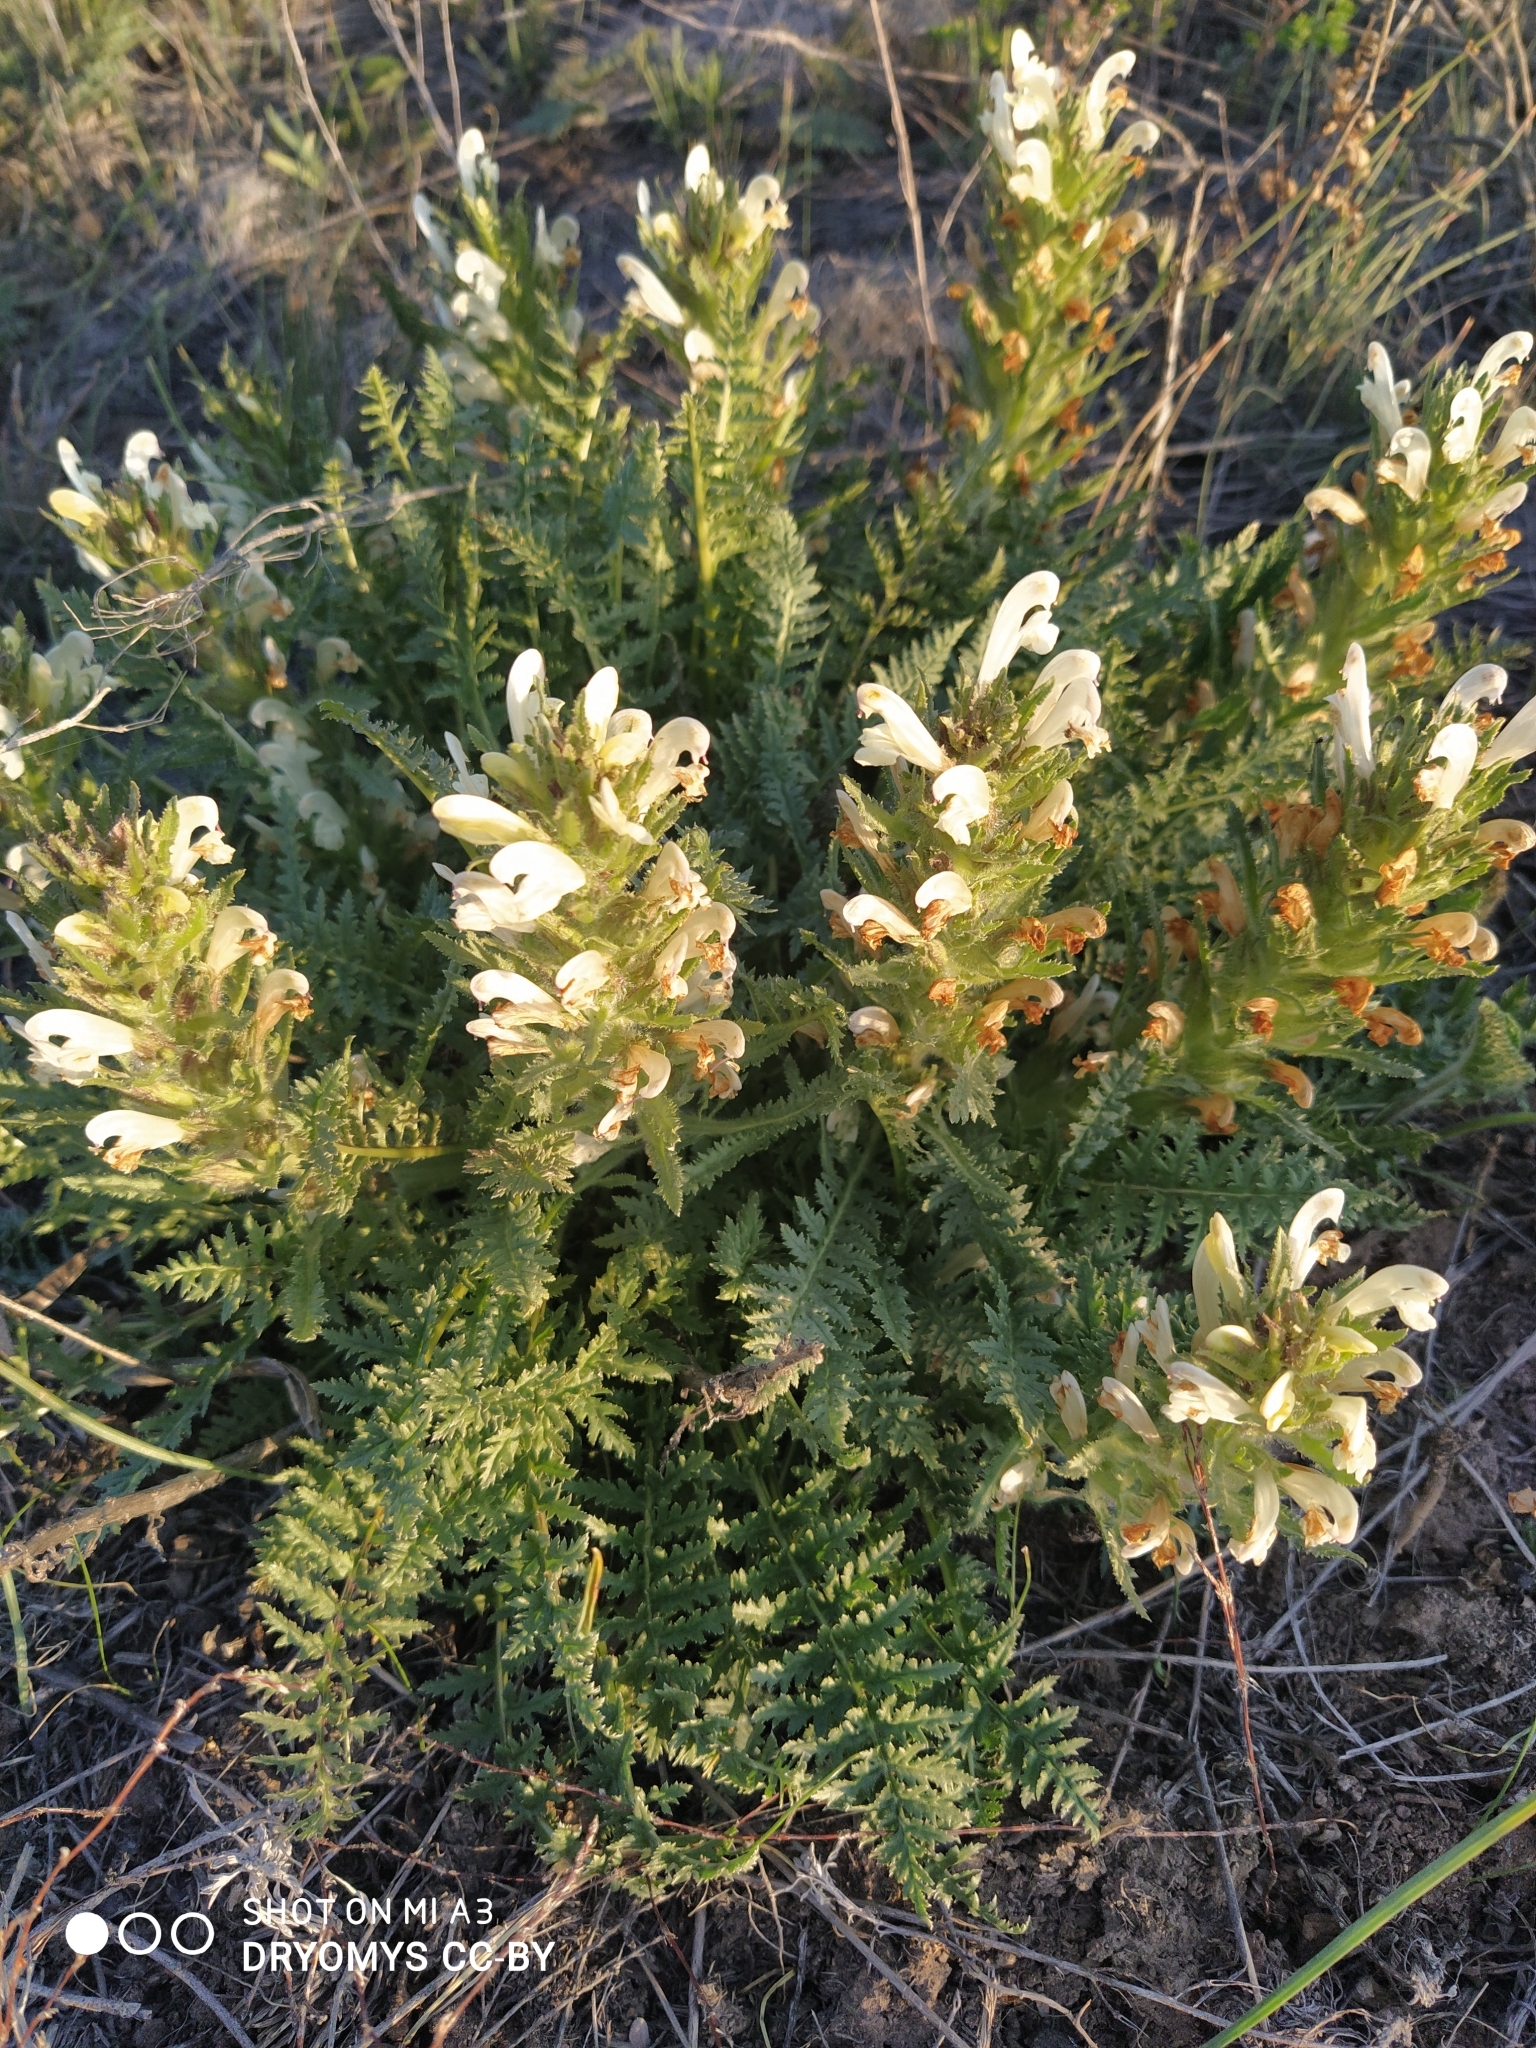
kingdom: Plantae
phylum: Tracheophyta
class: Magnoliopsida
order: Lamiales
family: Orobanchaceae
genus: Pedicularis
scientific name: Pedicularis physocalyx
